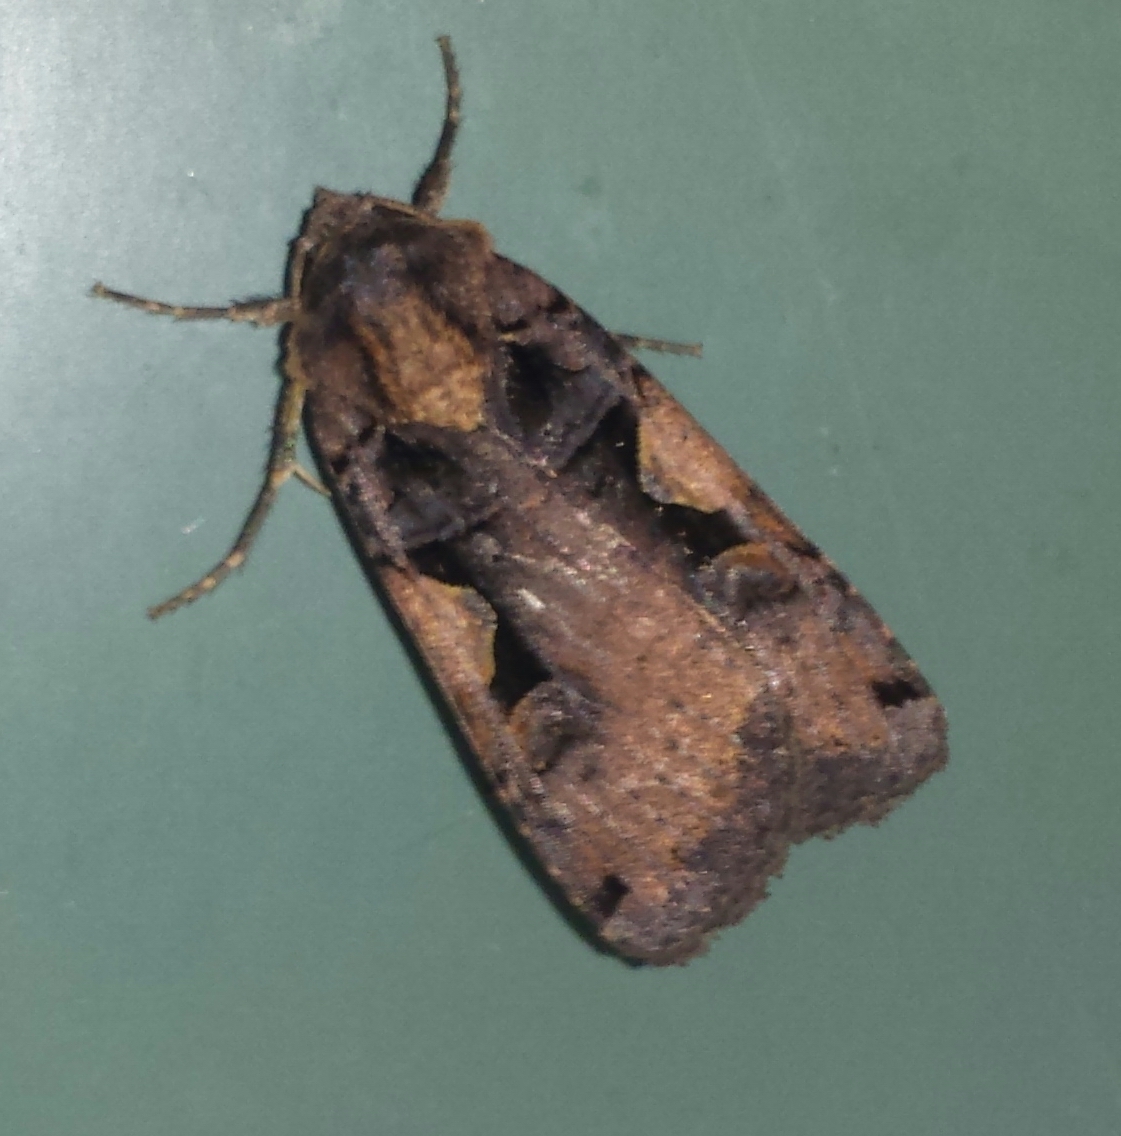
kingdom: Animalia
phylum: Arthropoda
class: Insecta
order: Lepidoptera
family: Noctuidae
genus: Xestia
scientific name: Xestia
